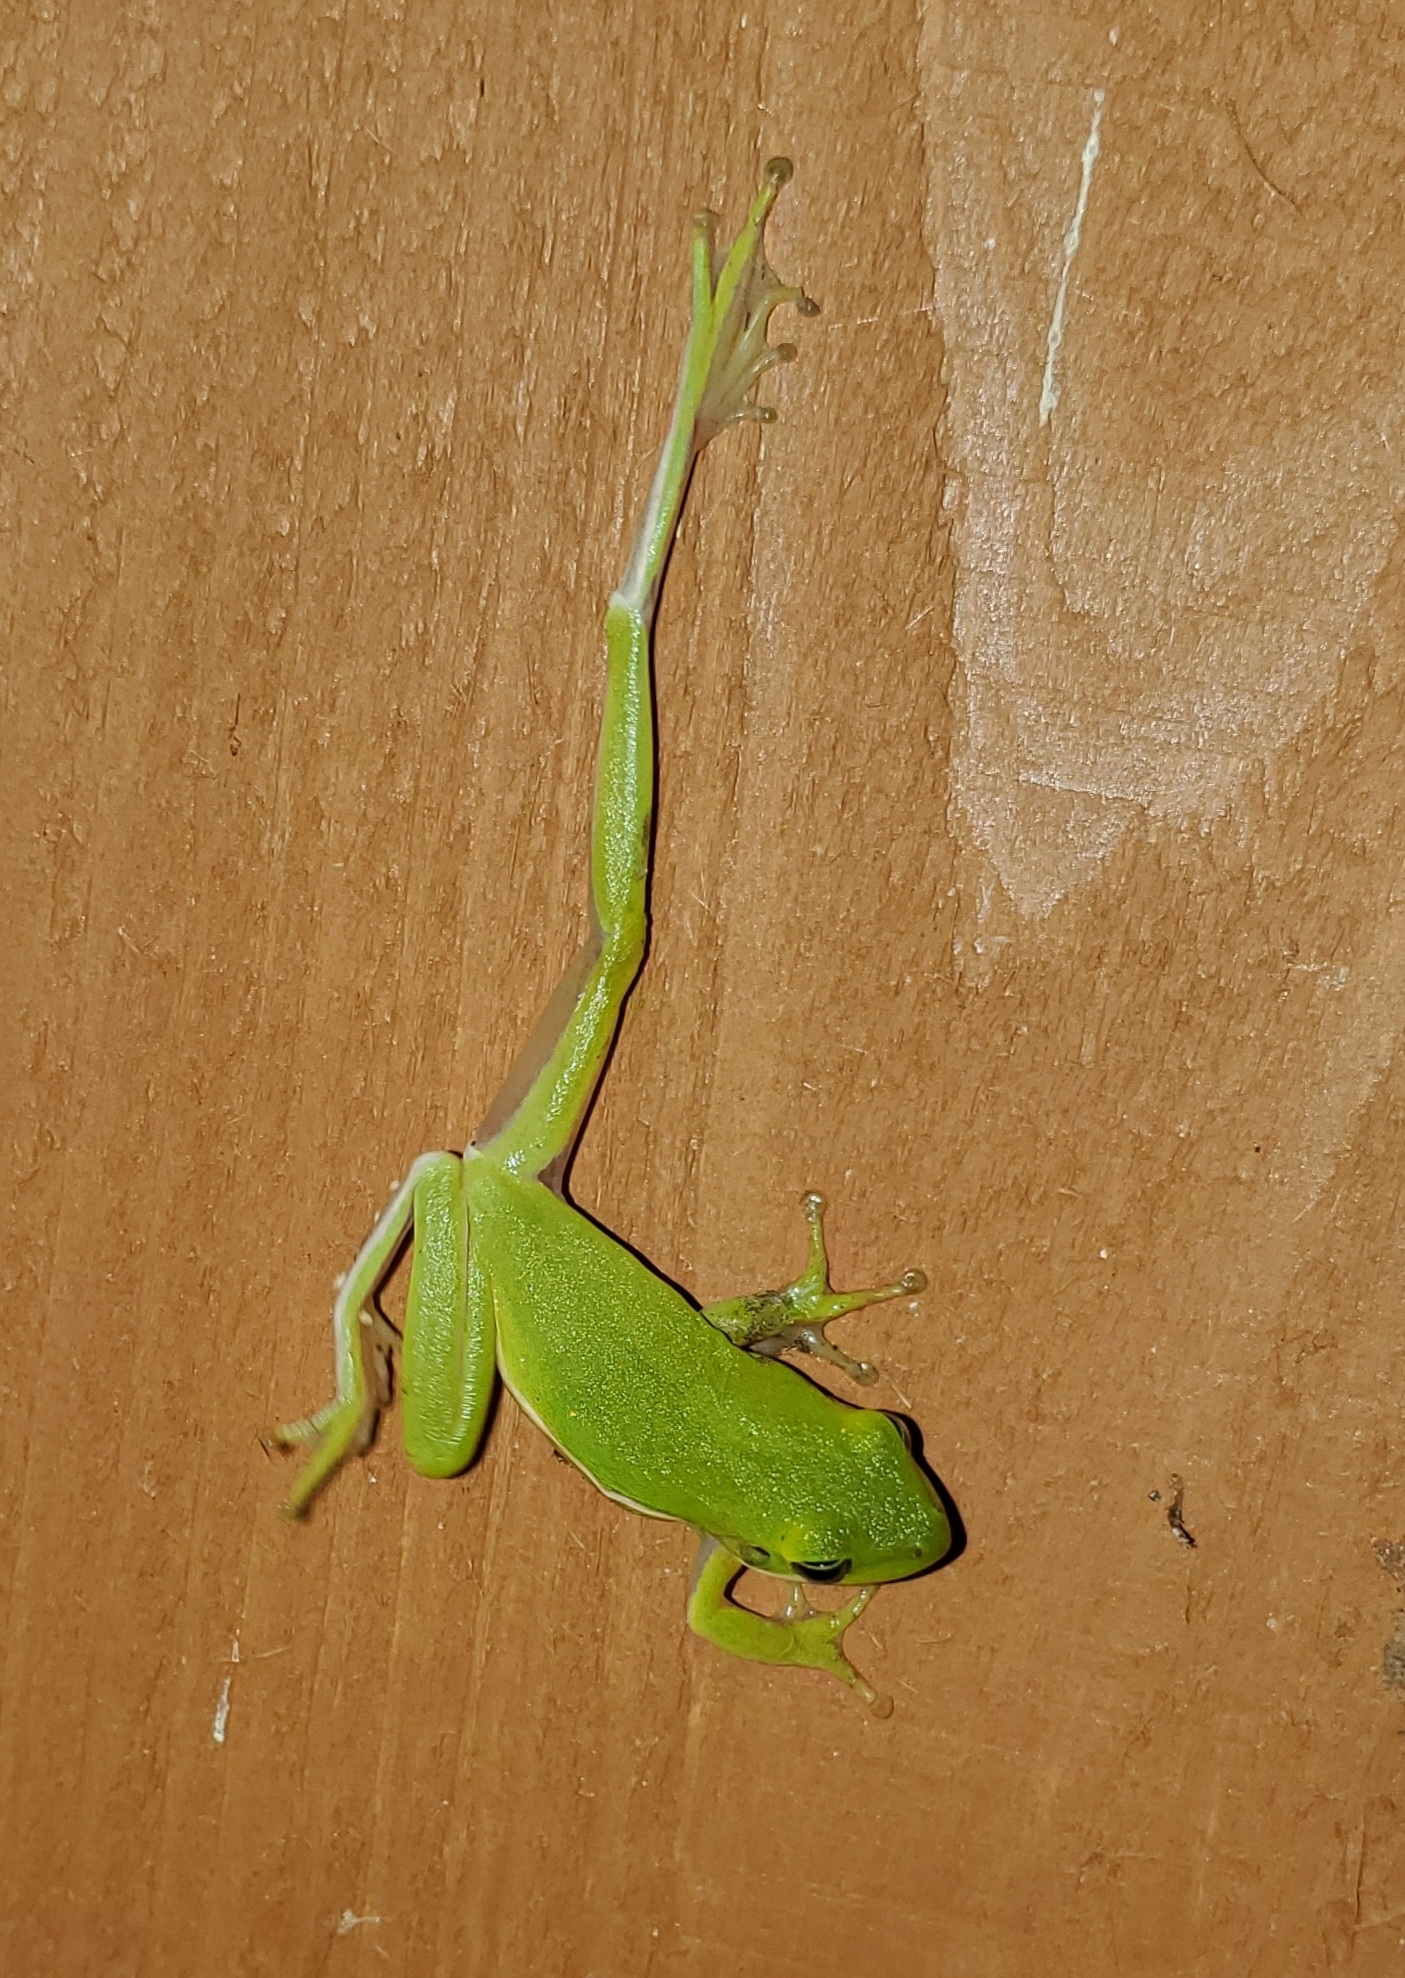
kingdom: Animalia
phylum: Chordata
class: Amphibia
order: Anura
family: Hylidae
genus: Dryophytes
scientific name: Dryophytes cinereus
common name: Green treefrog
